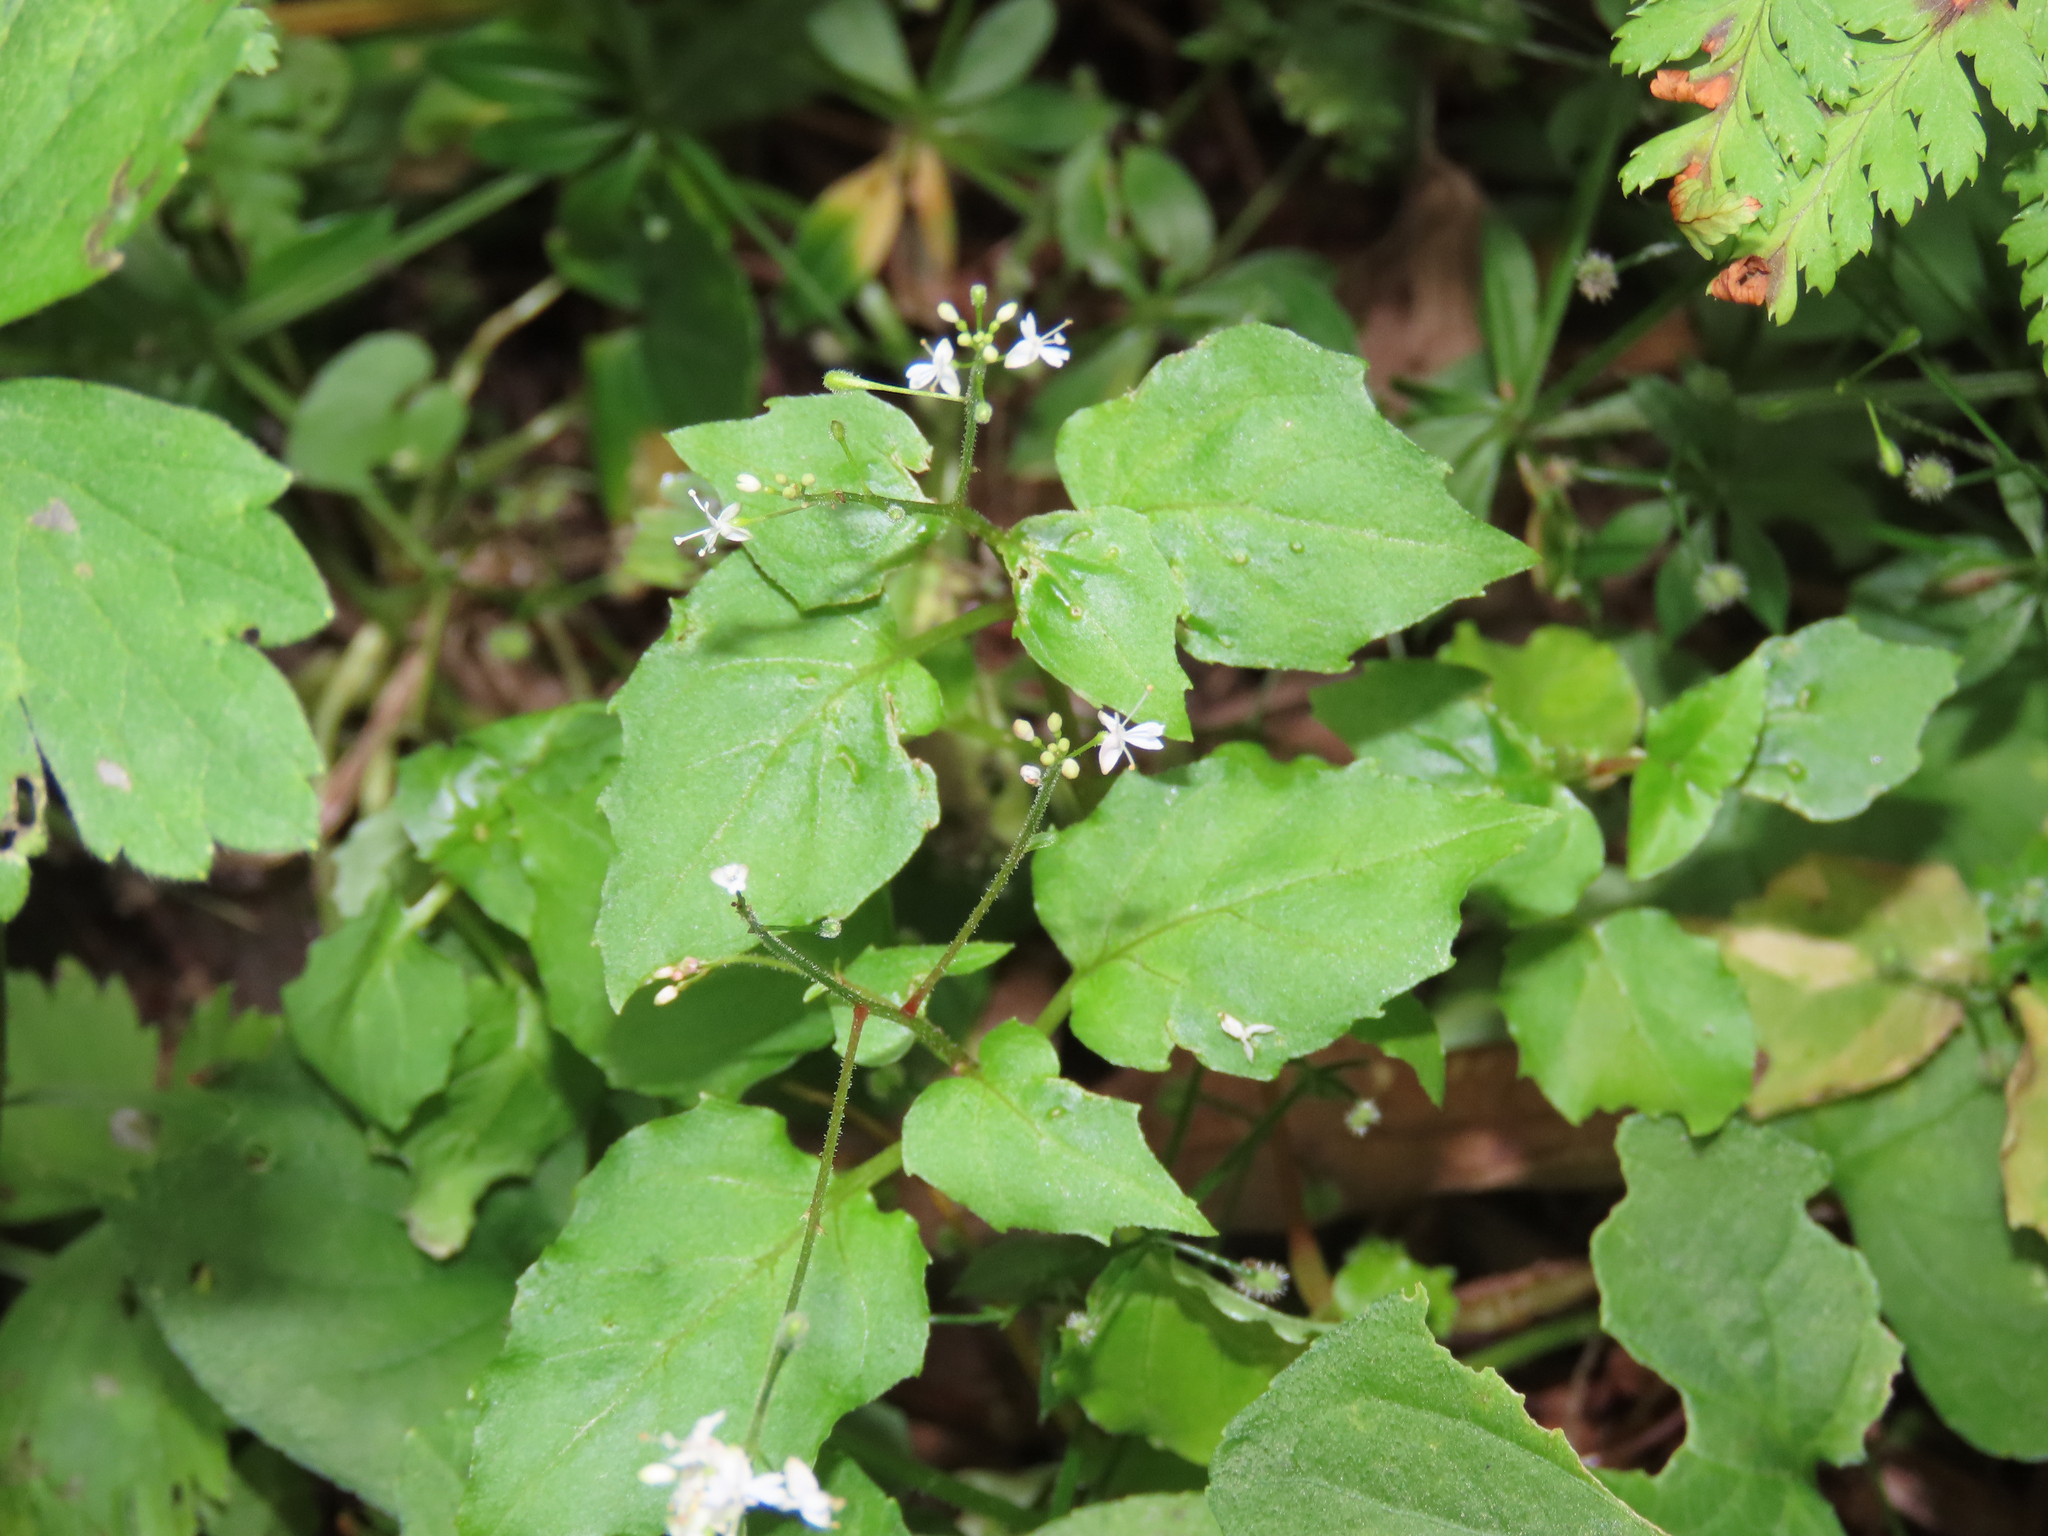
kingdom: Plantae
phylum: Tracheophyta
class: Magnoliopsida
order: Myrtales
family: Onagraceae
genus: Circaea
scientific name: Circaea alpina
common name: Alpine enchanter's-nightshade
